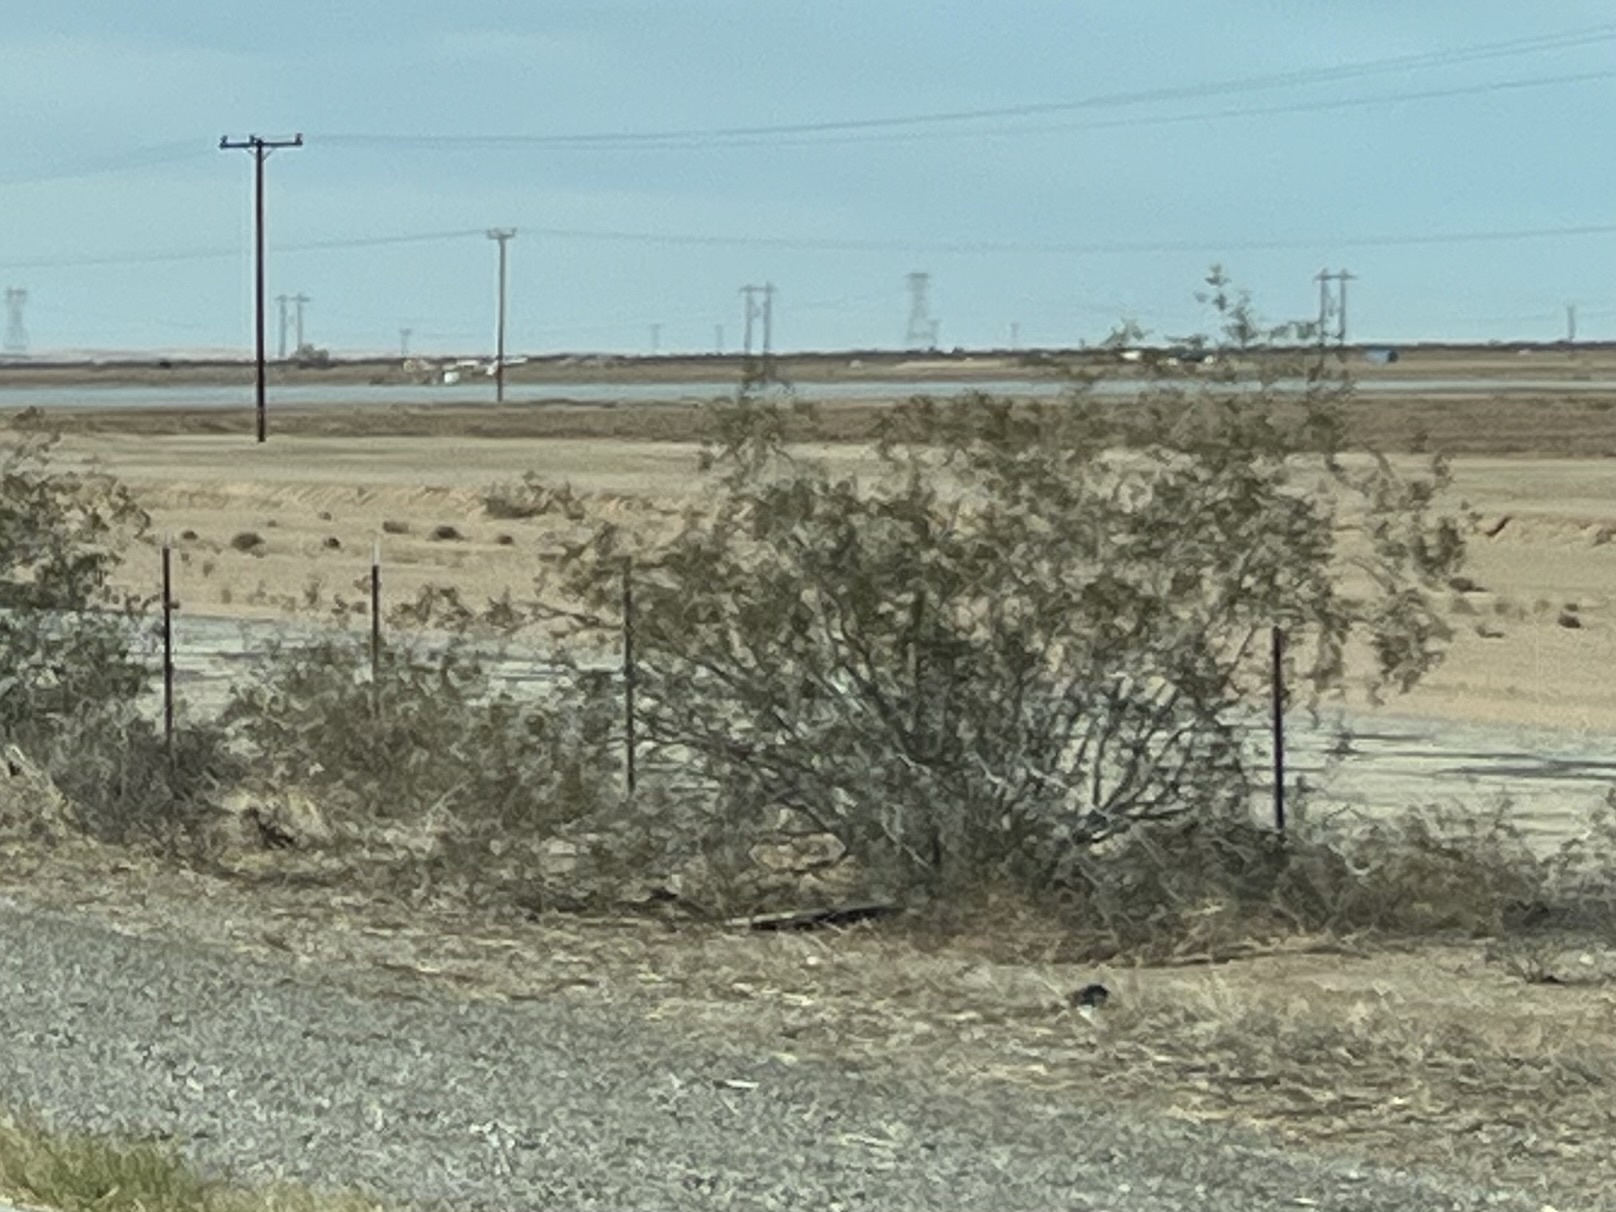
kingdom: Plantae
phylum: Tracheophyta
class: Magnoliopsida
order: Zygophyllales
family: Zygophyllaceae
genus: Larrea
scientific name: Larrea tridentata
